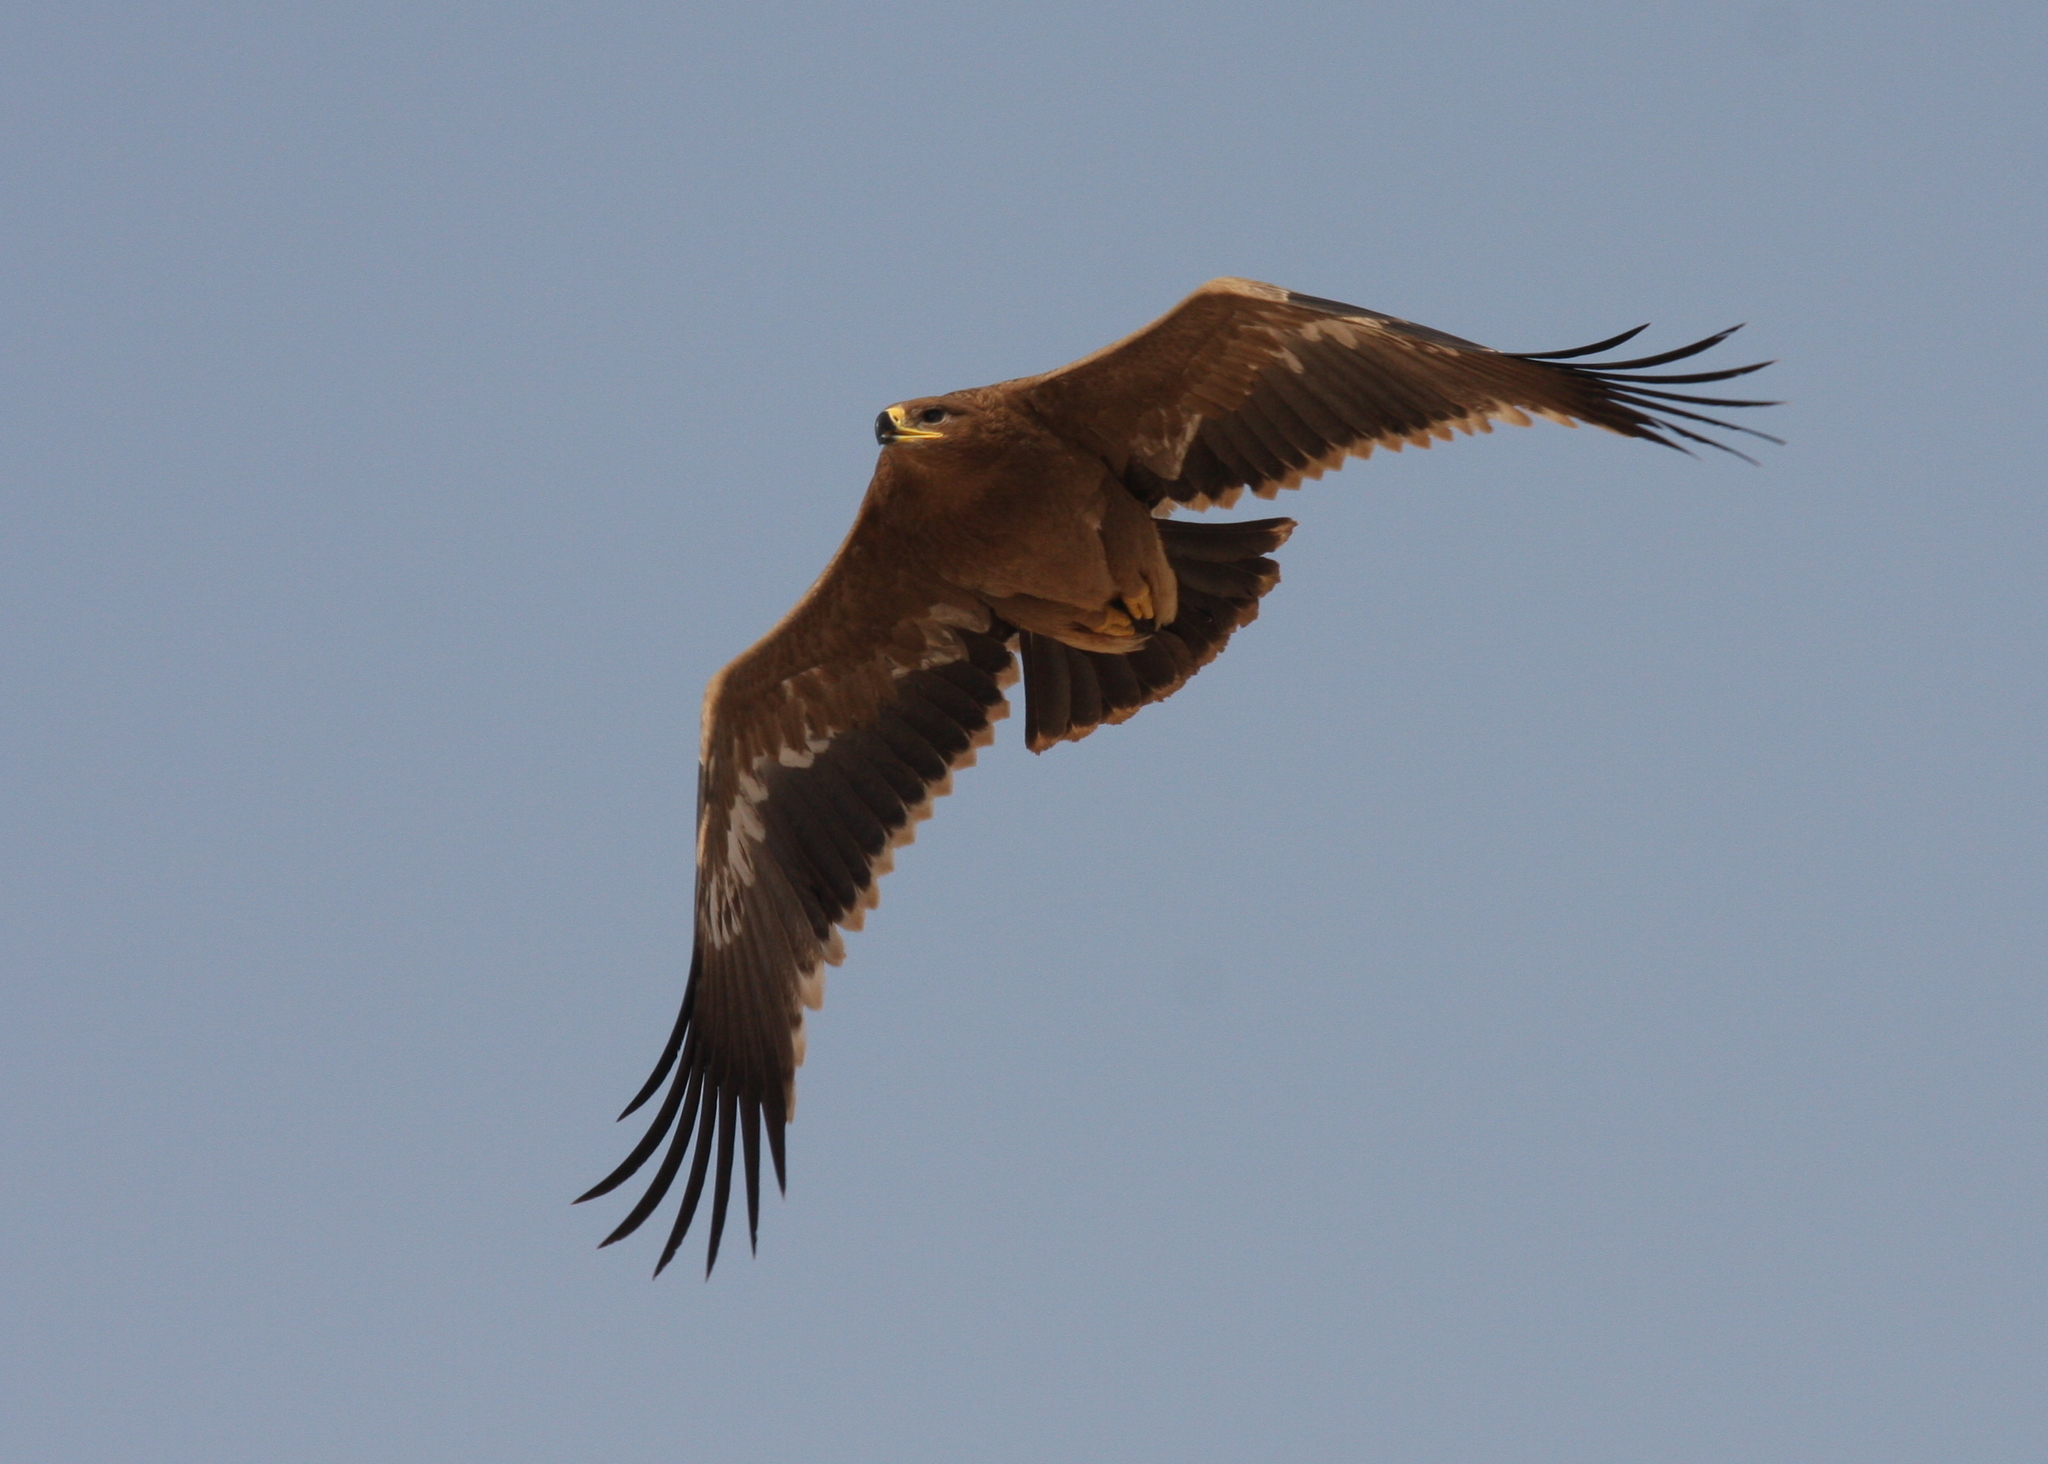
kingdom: Animalia
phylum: Chordata
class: Aves
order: Accipitriformes
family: Accipitridae
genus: Aquila
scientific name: Aquila nipalensis
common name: Steppe eagle
